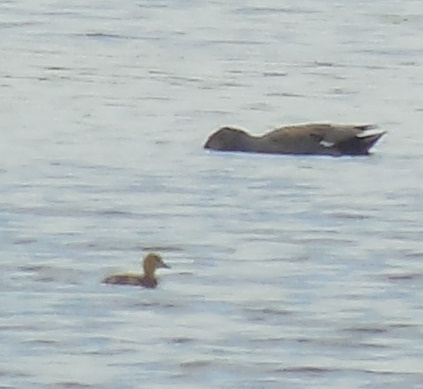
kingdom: Animalia
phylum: Chordata
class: Aves
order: Anseriformes
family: Anatidae
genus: Mareca
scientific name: Mareca strepera
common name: Gadwall
